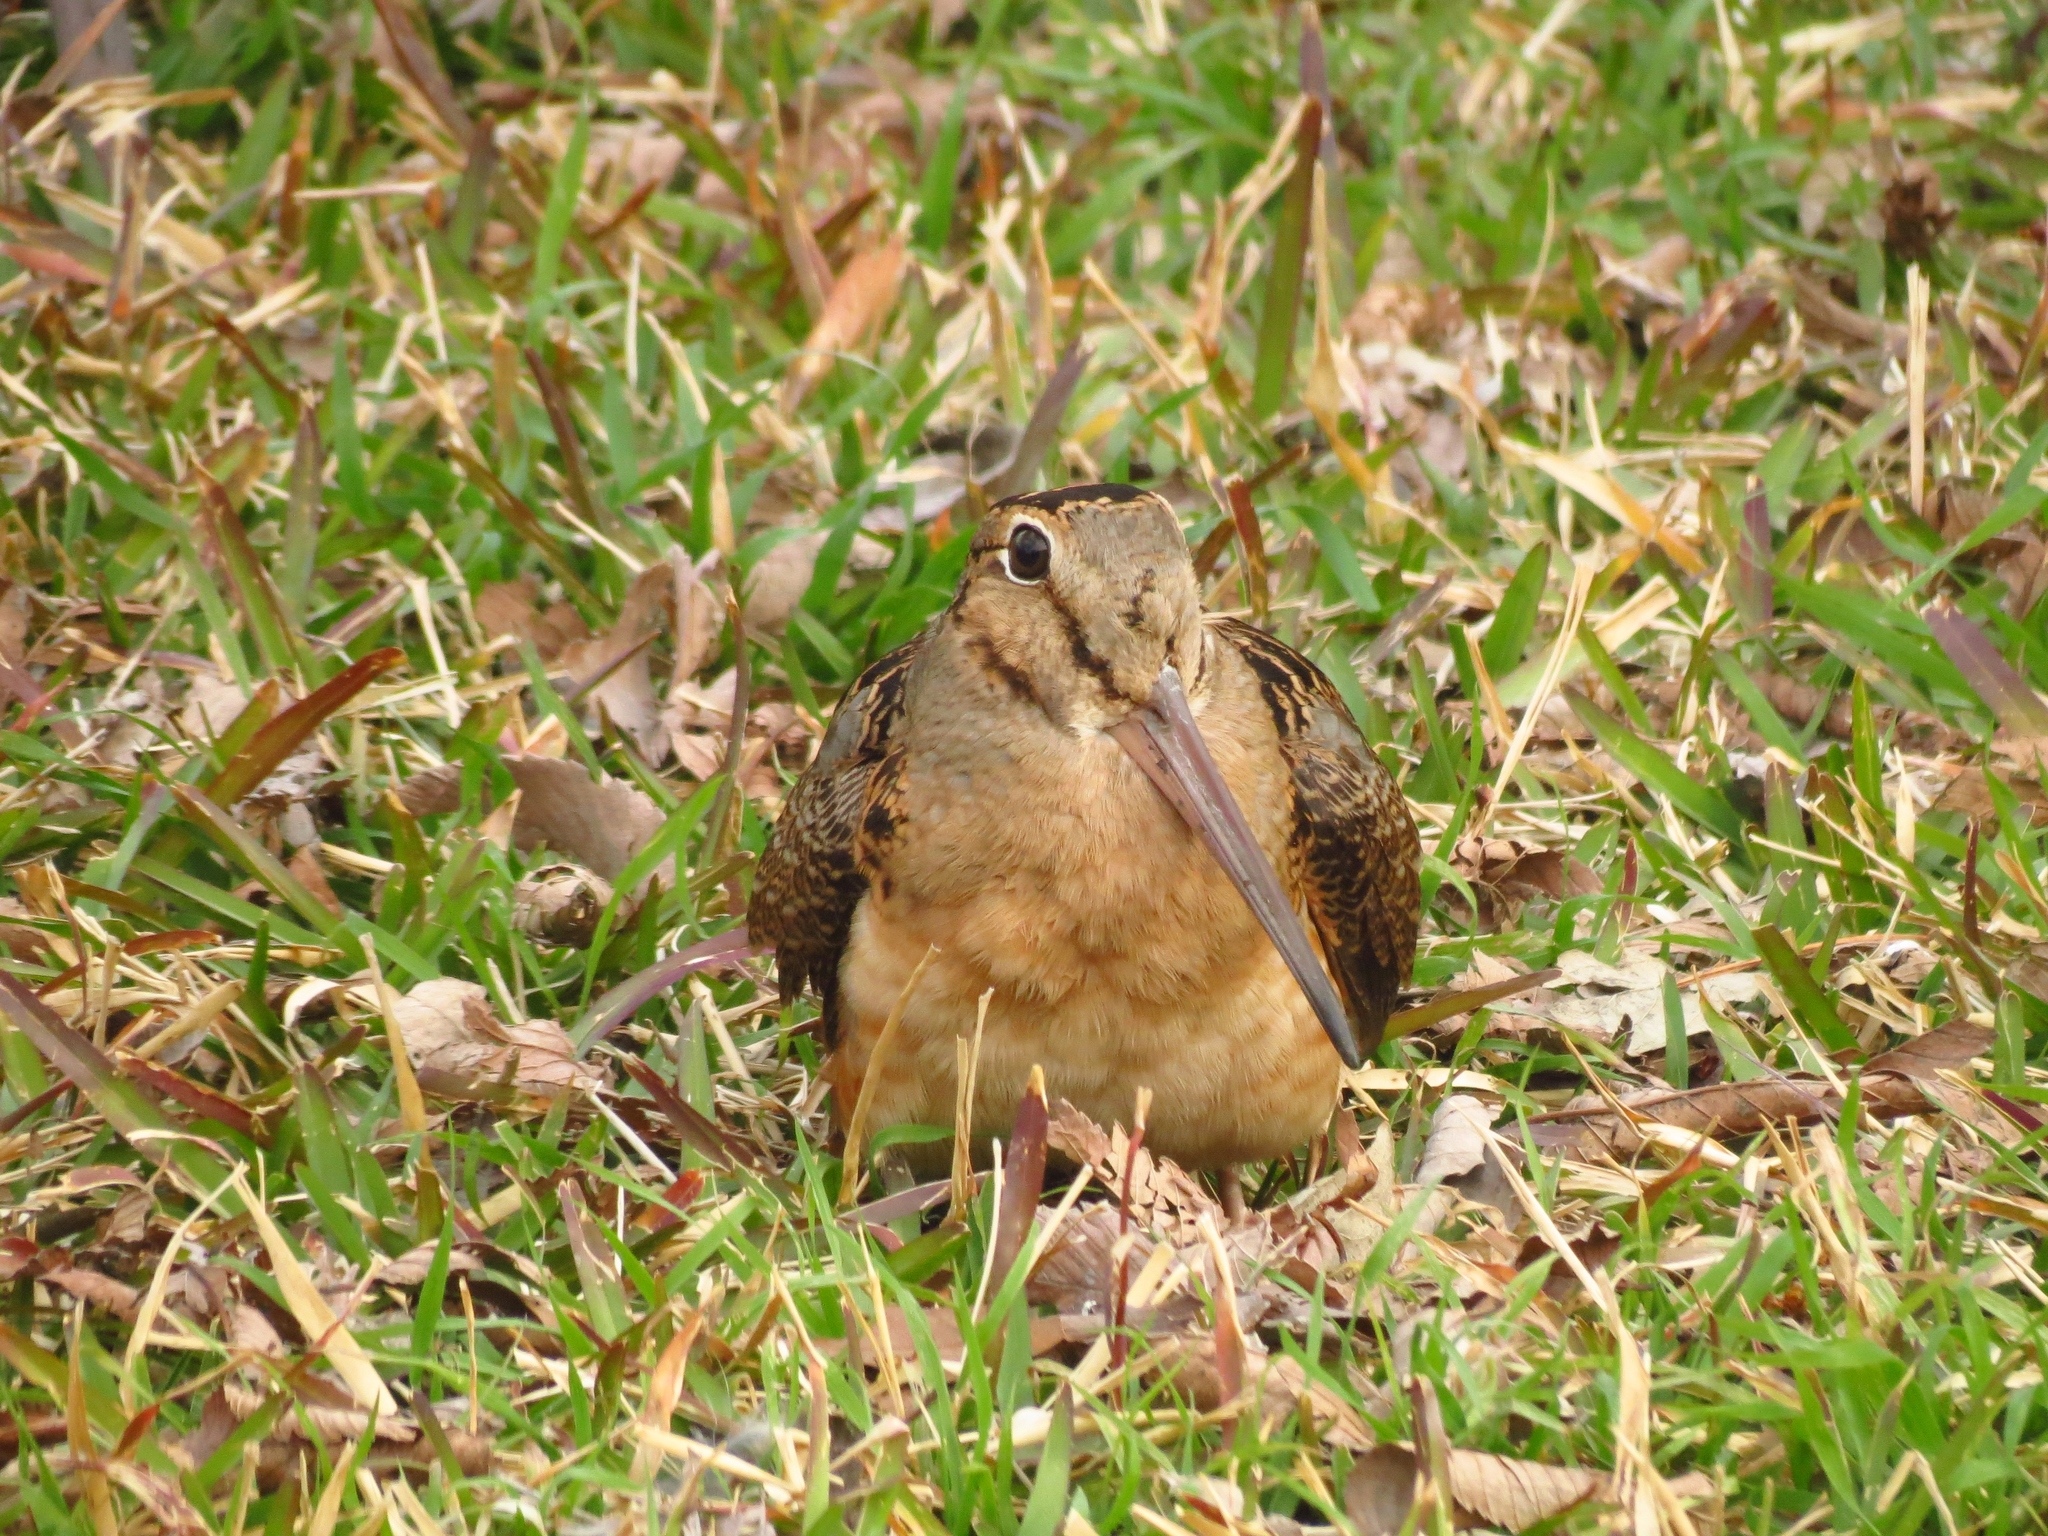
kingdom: Animalia
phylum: Chordata
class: Aves
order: Charadriiformes
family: Scolopacidae
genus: Scolopax
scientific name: Scolopax minor
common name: American woodcock
